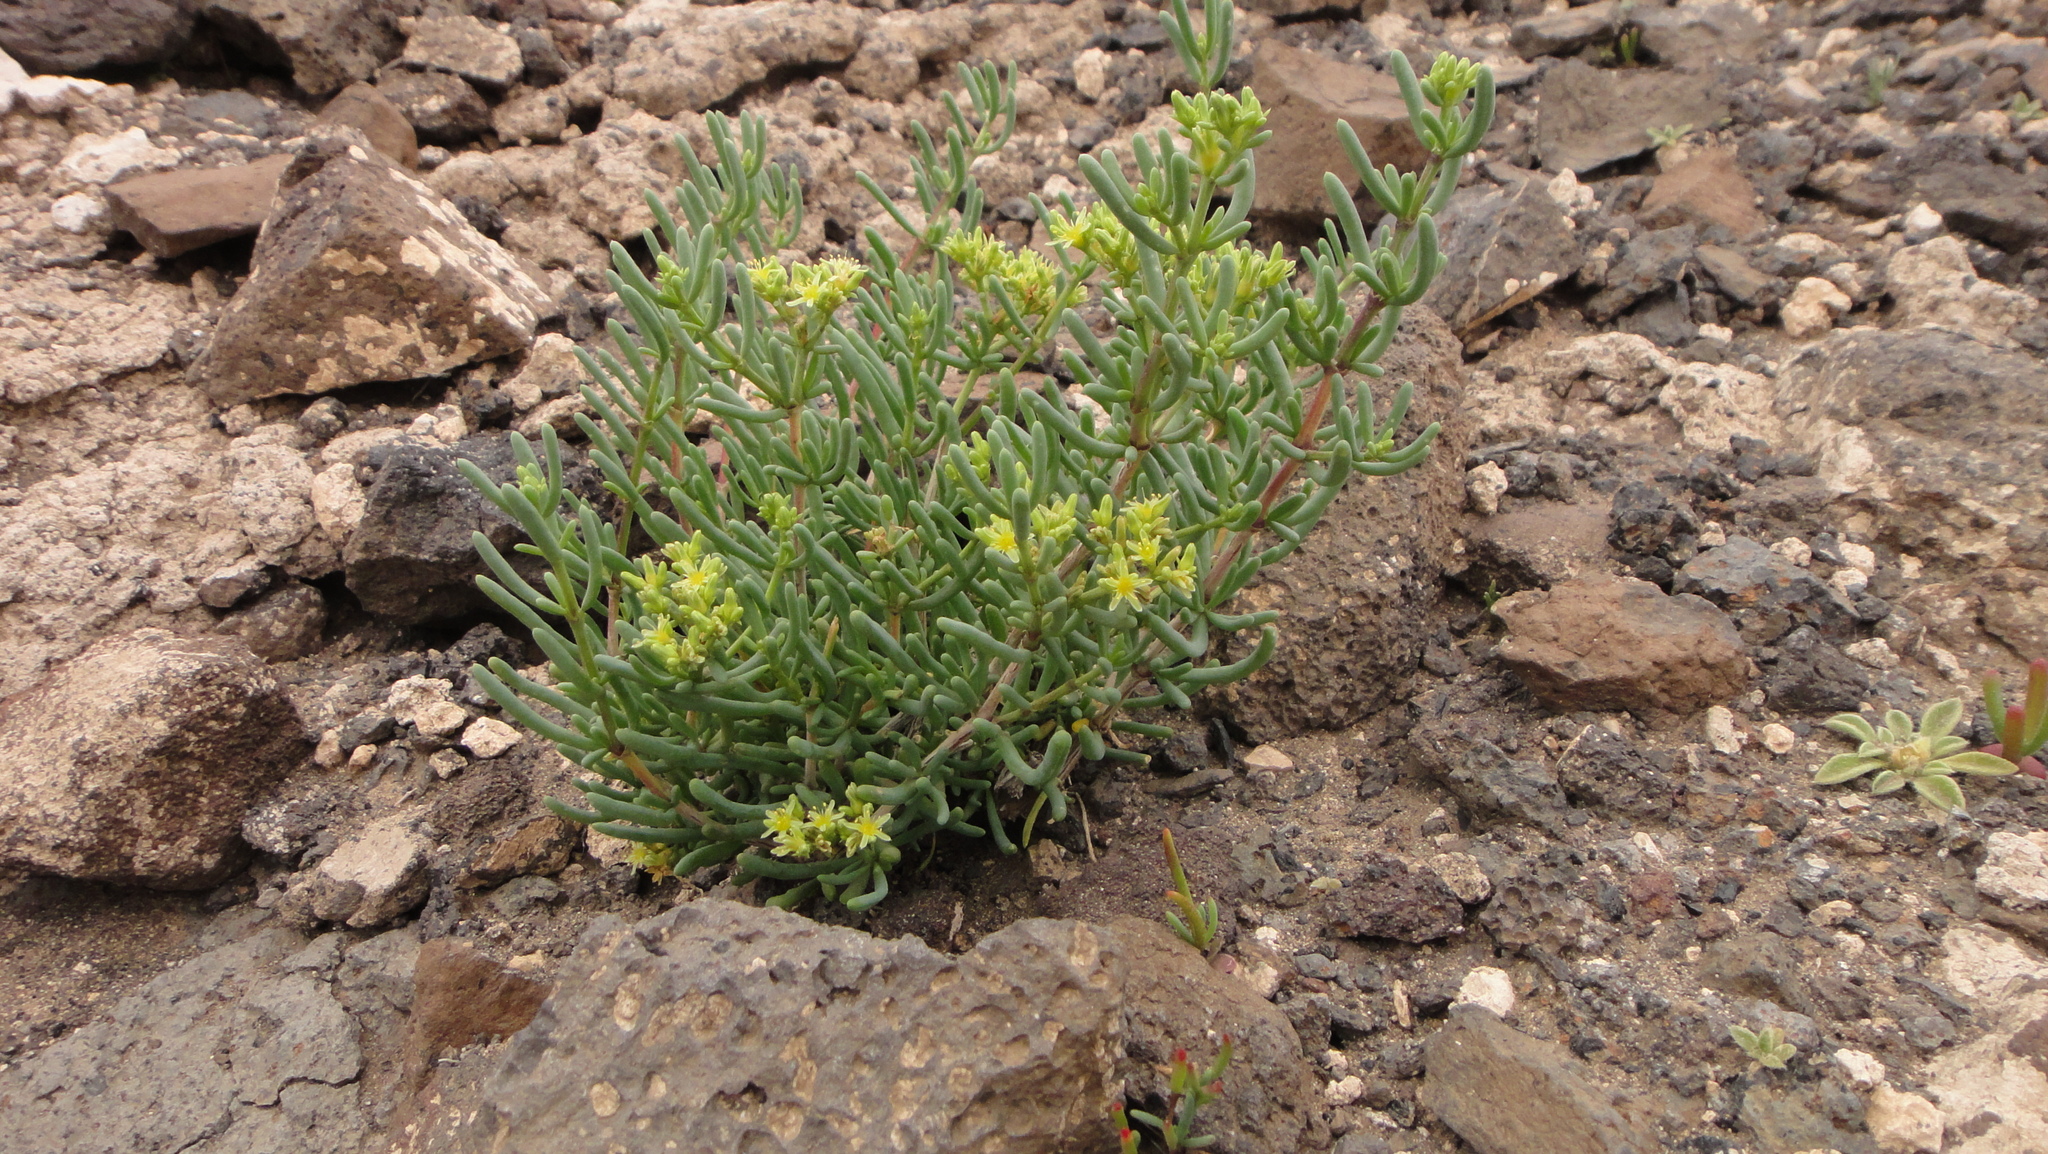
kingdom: Plantae
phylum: Tracheophyta
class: Magnoliopsida
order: Caryophyllales
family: Caryophyllaceae
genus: Gymnocarpos
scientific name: Gymnocarpos decander
